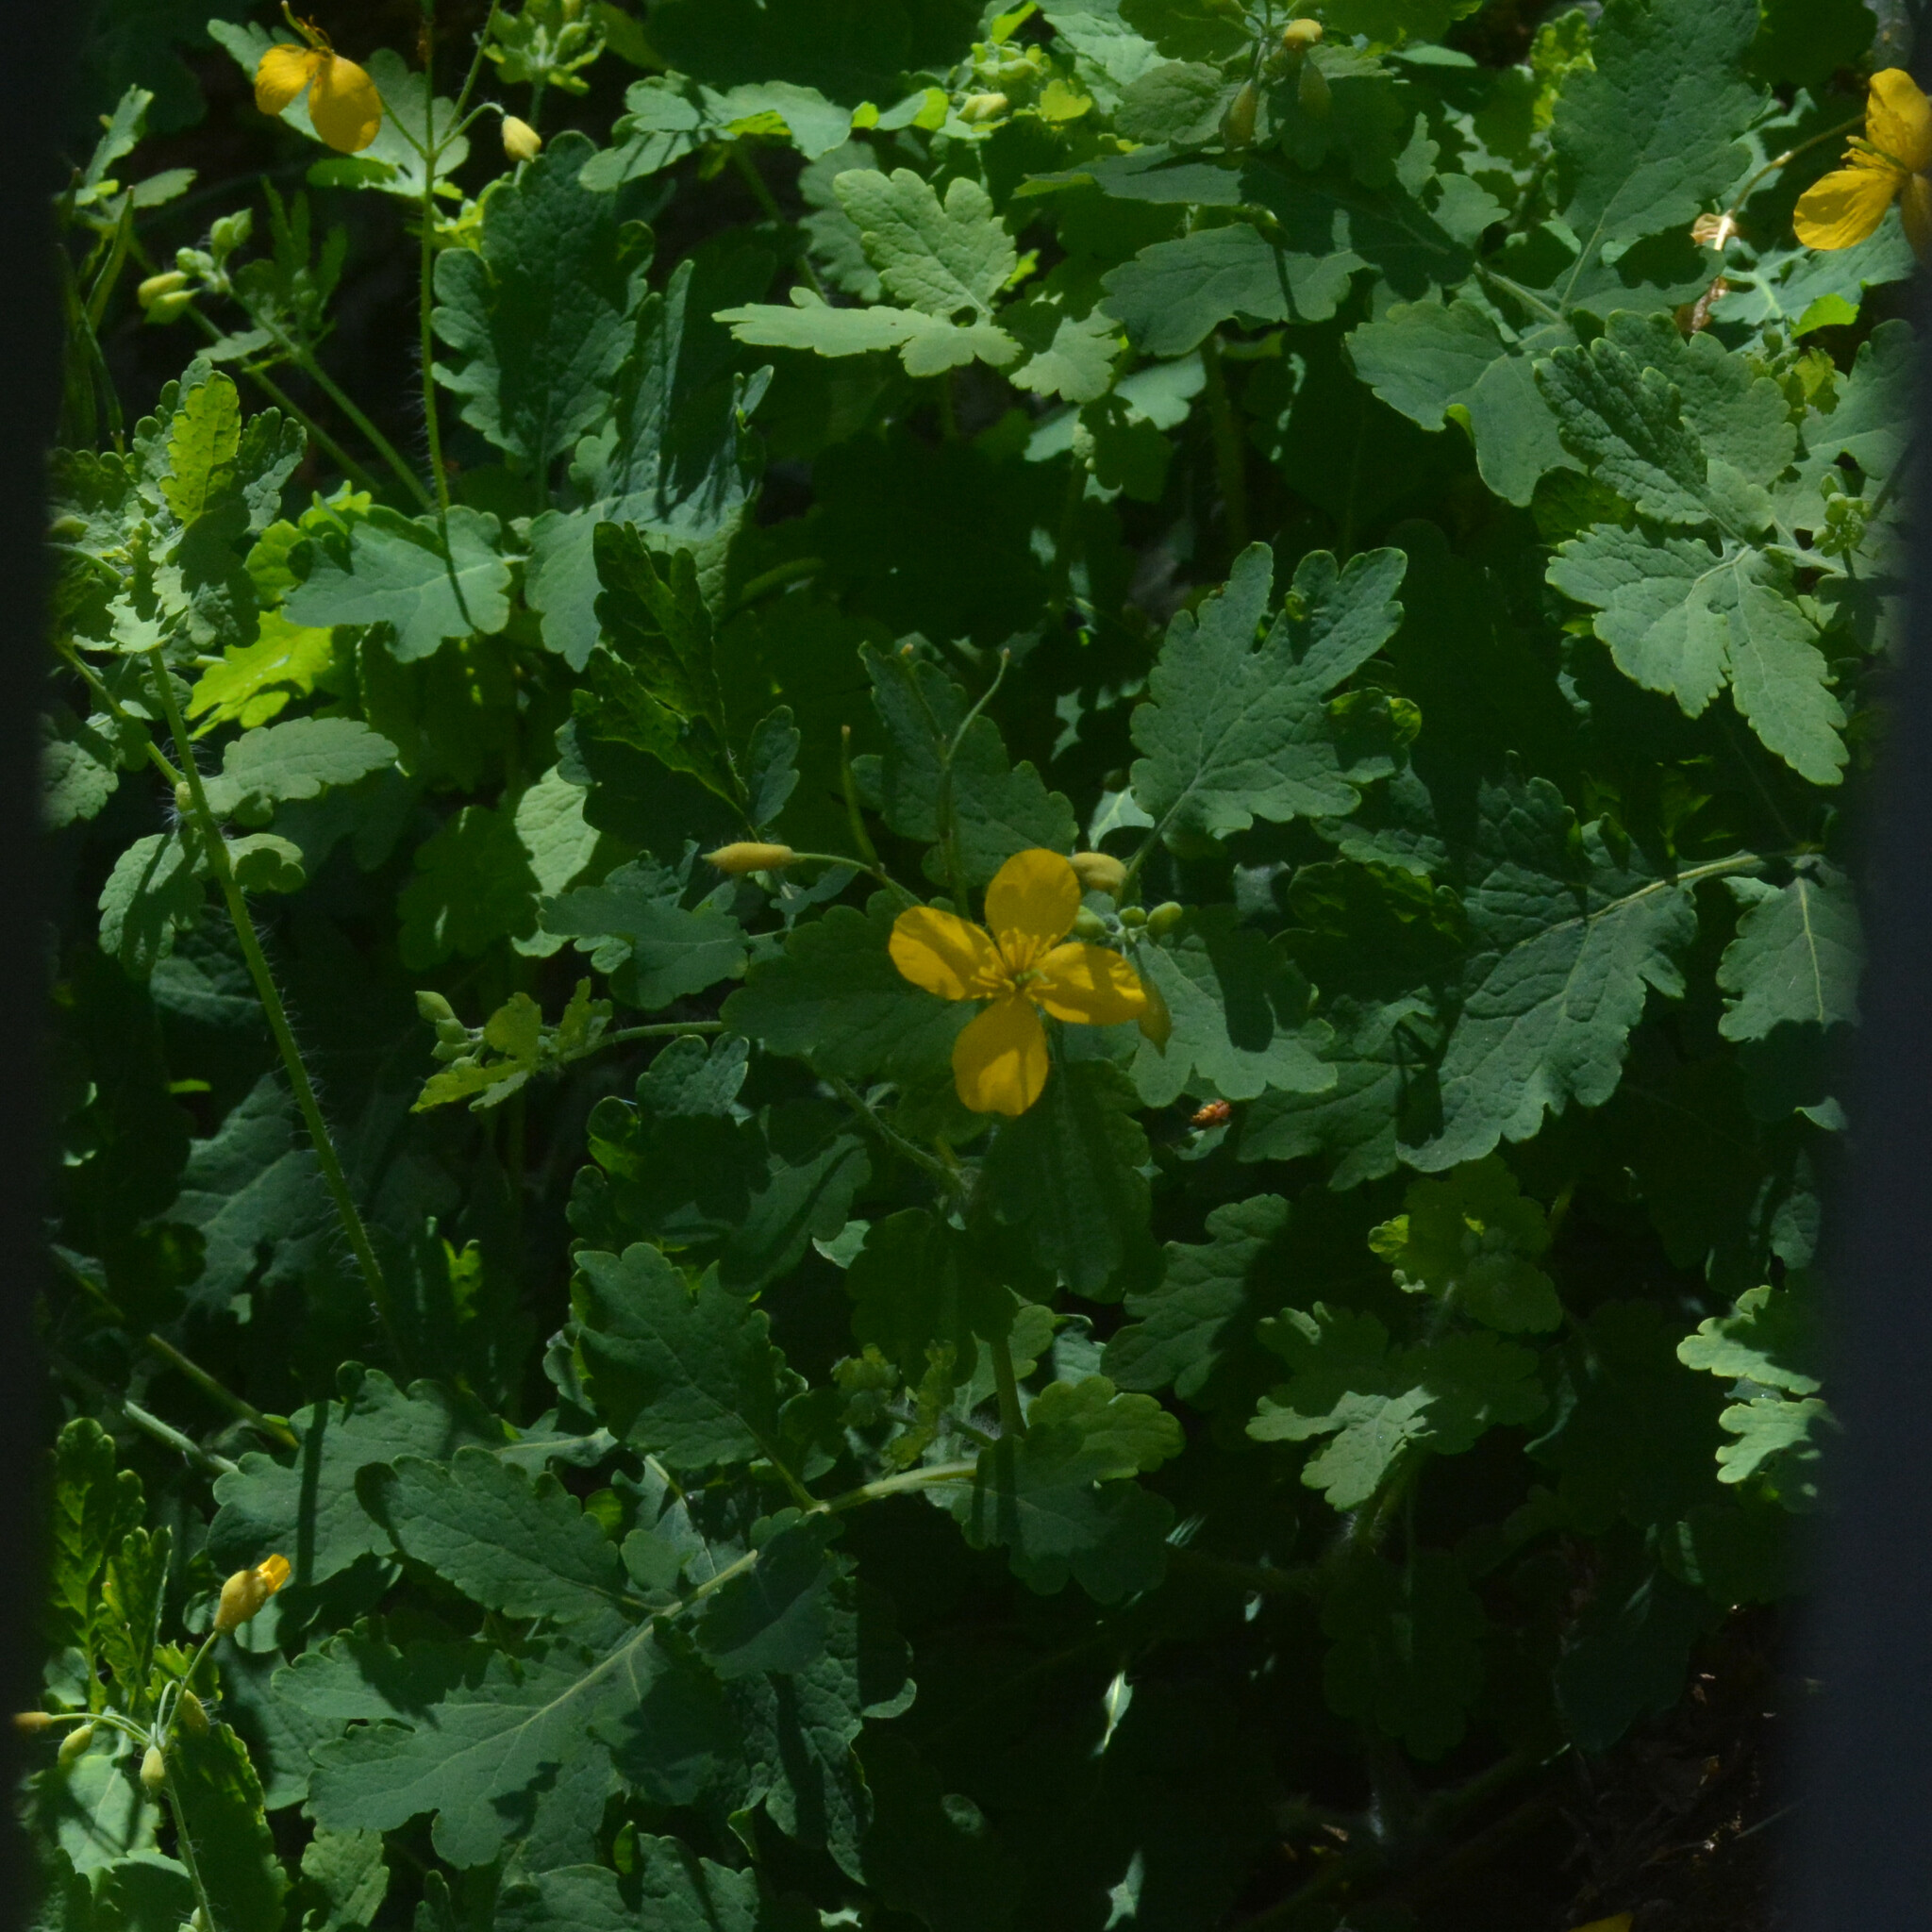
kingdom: Plantae
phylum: Tracheophyta
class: Magnoliopsida
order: Ranunculales
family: Papaveraceae
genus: Chelidonium
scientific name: Chelidonium majus
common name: Greater celandine
